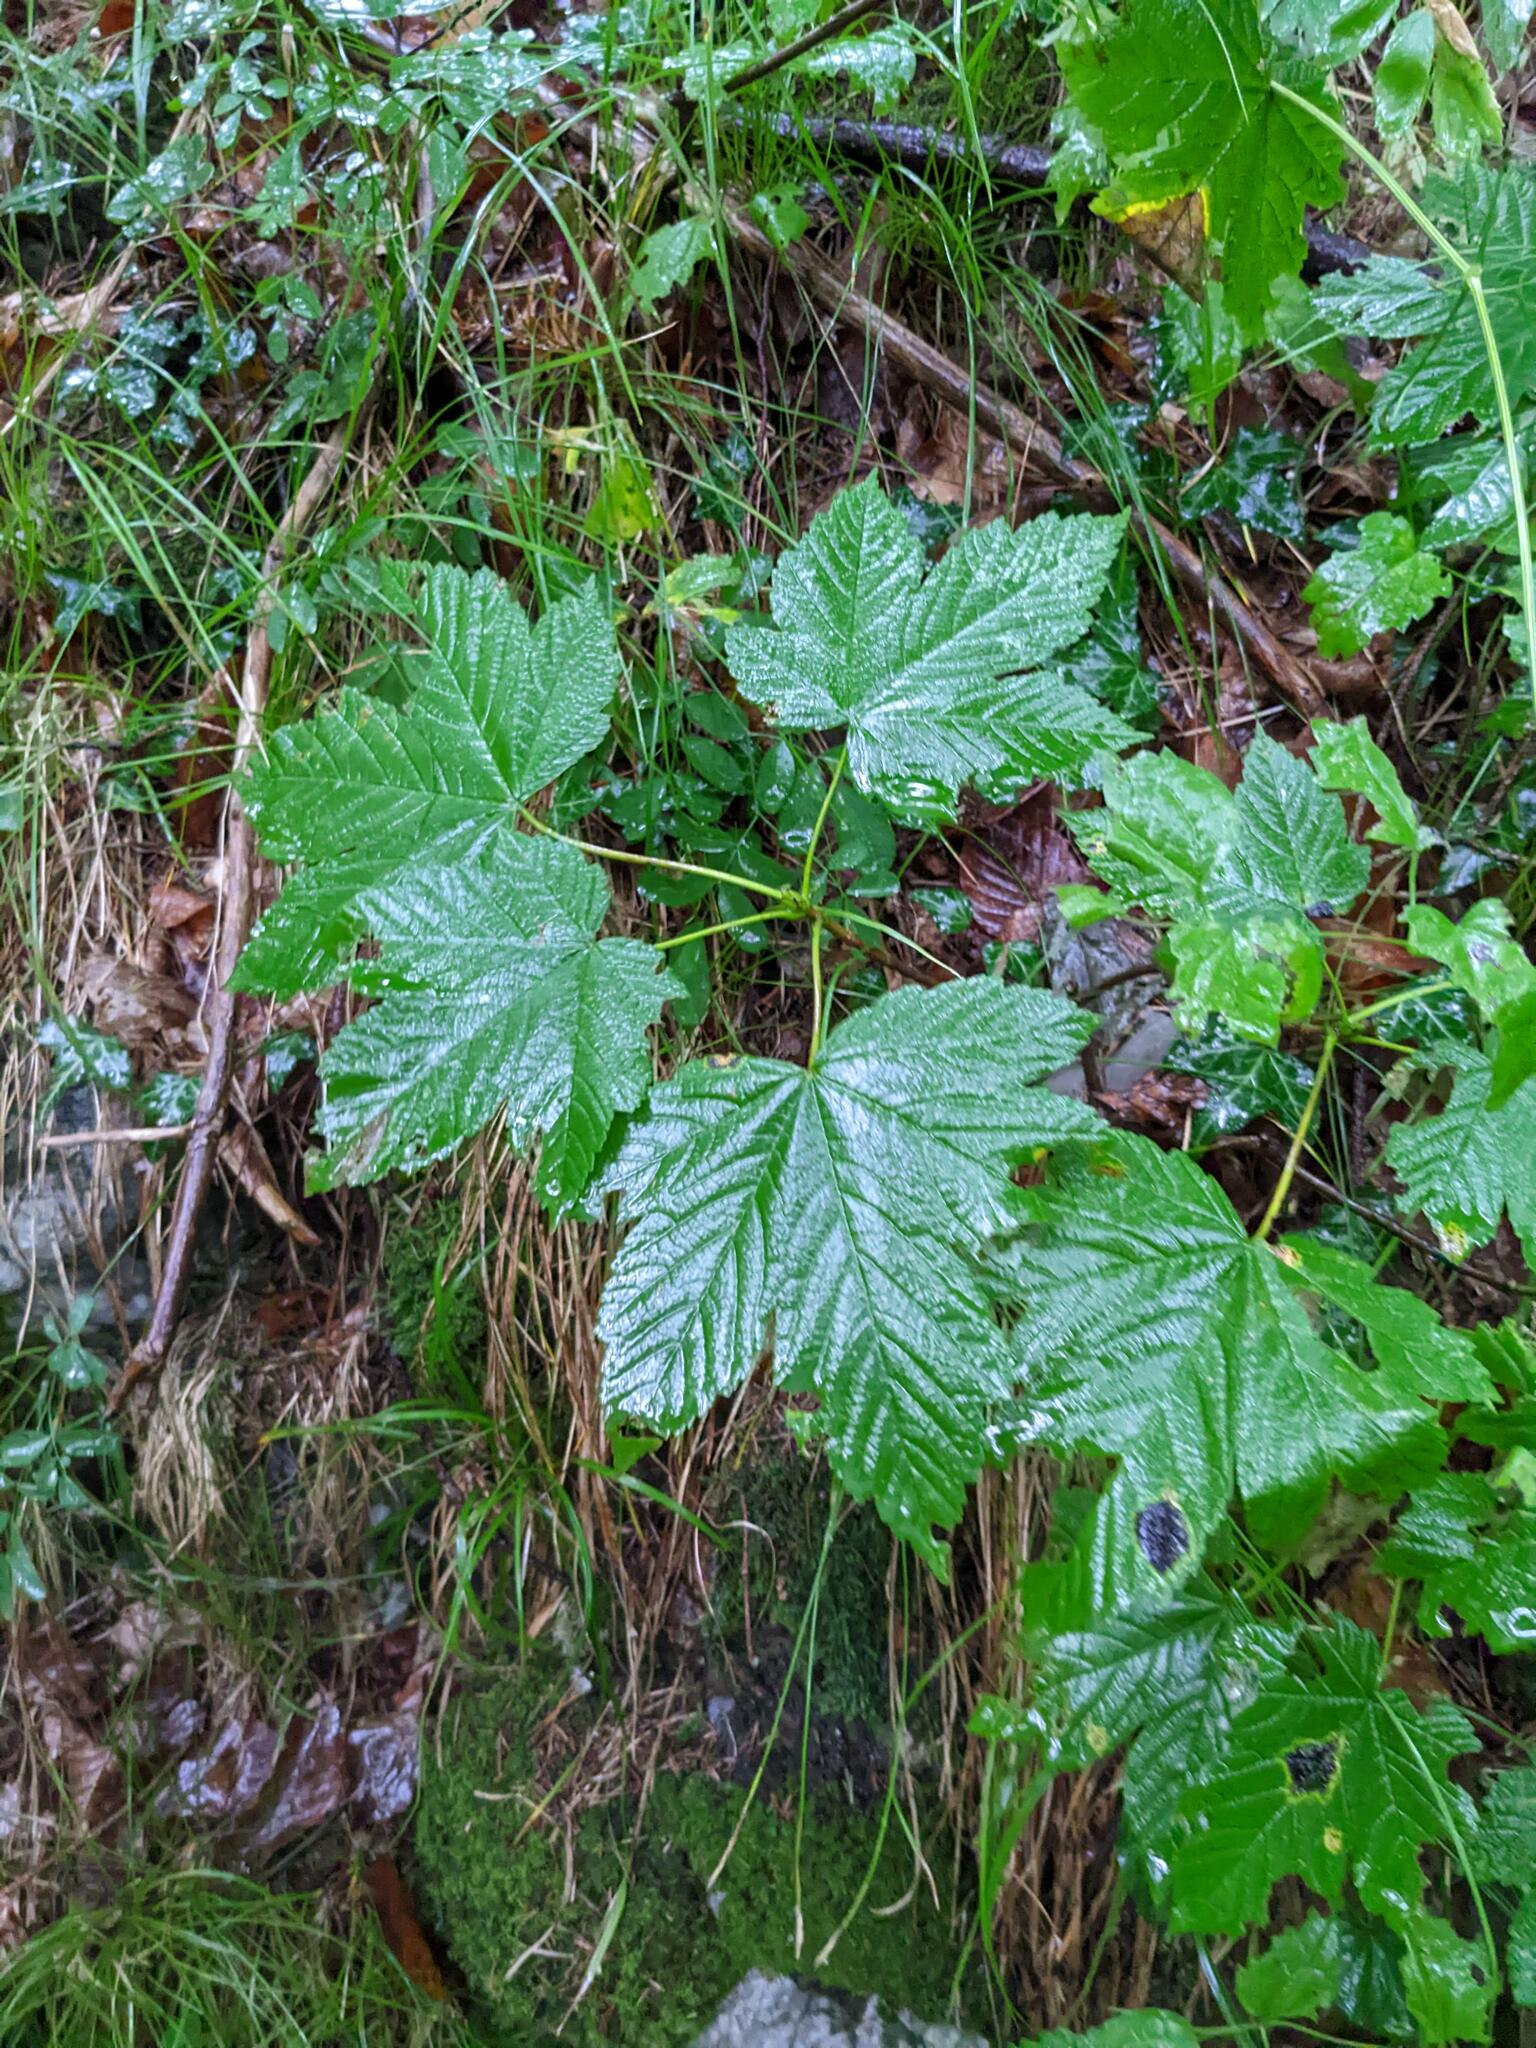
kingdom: Plantae
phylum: Tracheophyta
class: Magnoliopsida
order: Sapindales
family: Sapindaceae
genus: Acer
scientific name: Acer pseudoplatanus
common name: Sycamore
